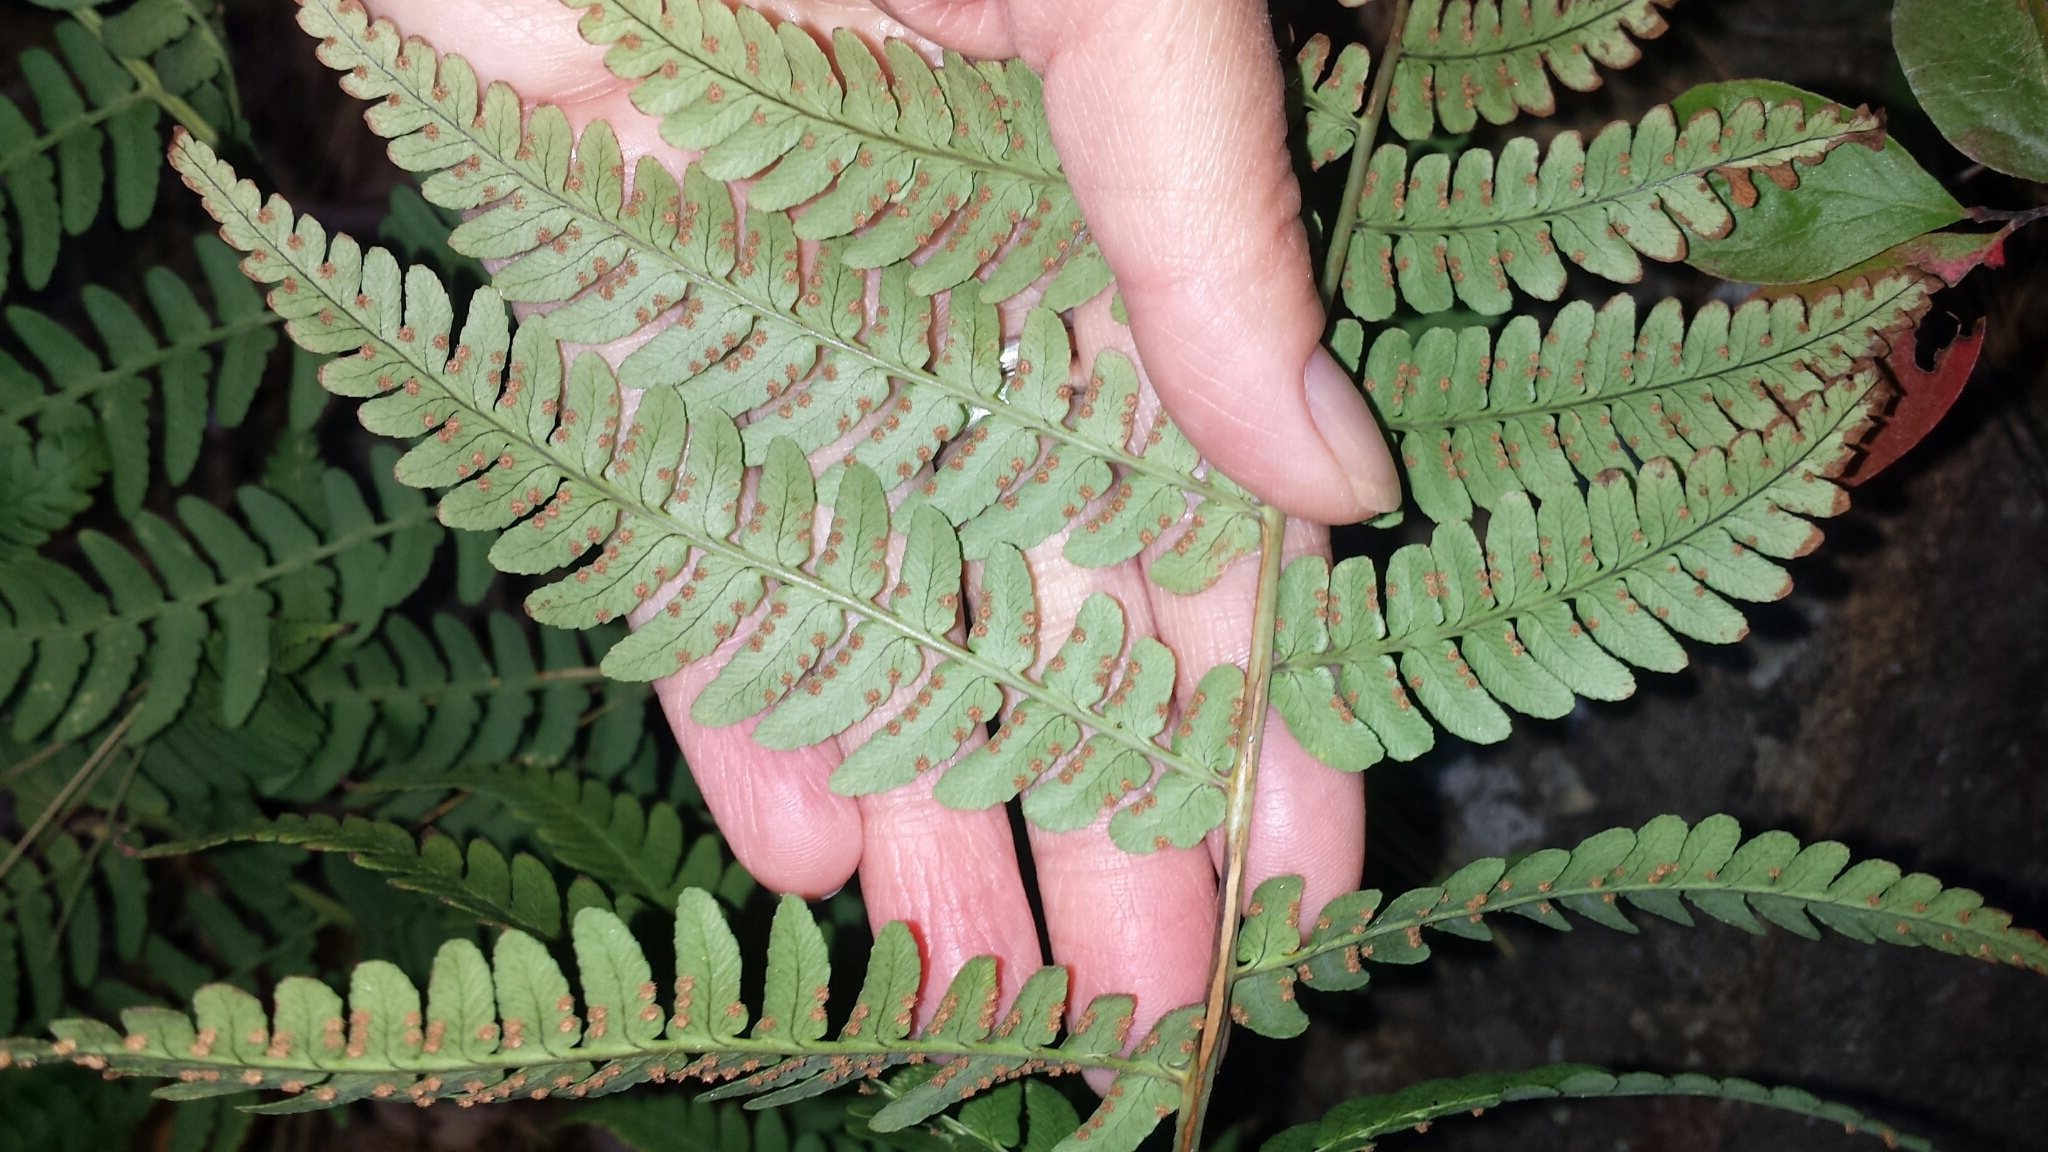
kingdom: Plantae
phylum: Tracheophyta
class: Polypodiopsida
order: Polypodiales
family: Dryopteridaceae
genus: Dryopteris
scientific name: Dryopteris marginalis
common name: Marginal wood fern
